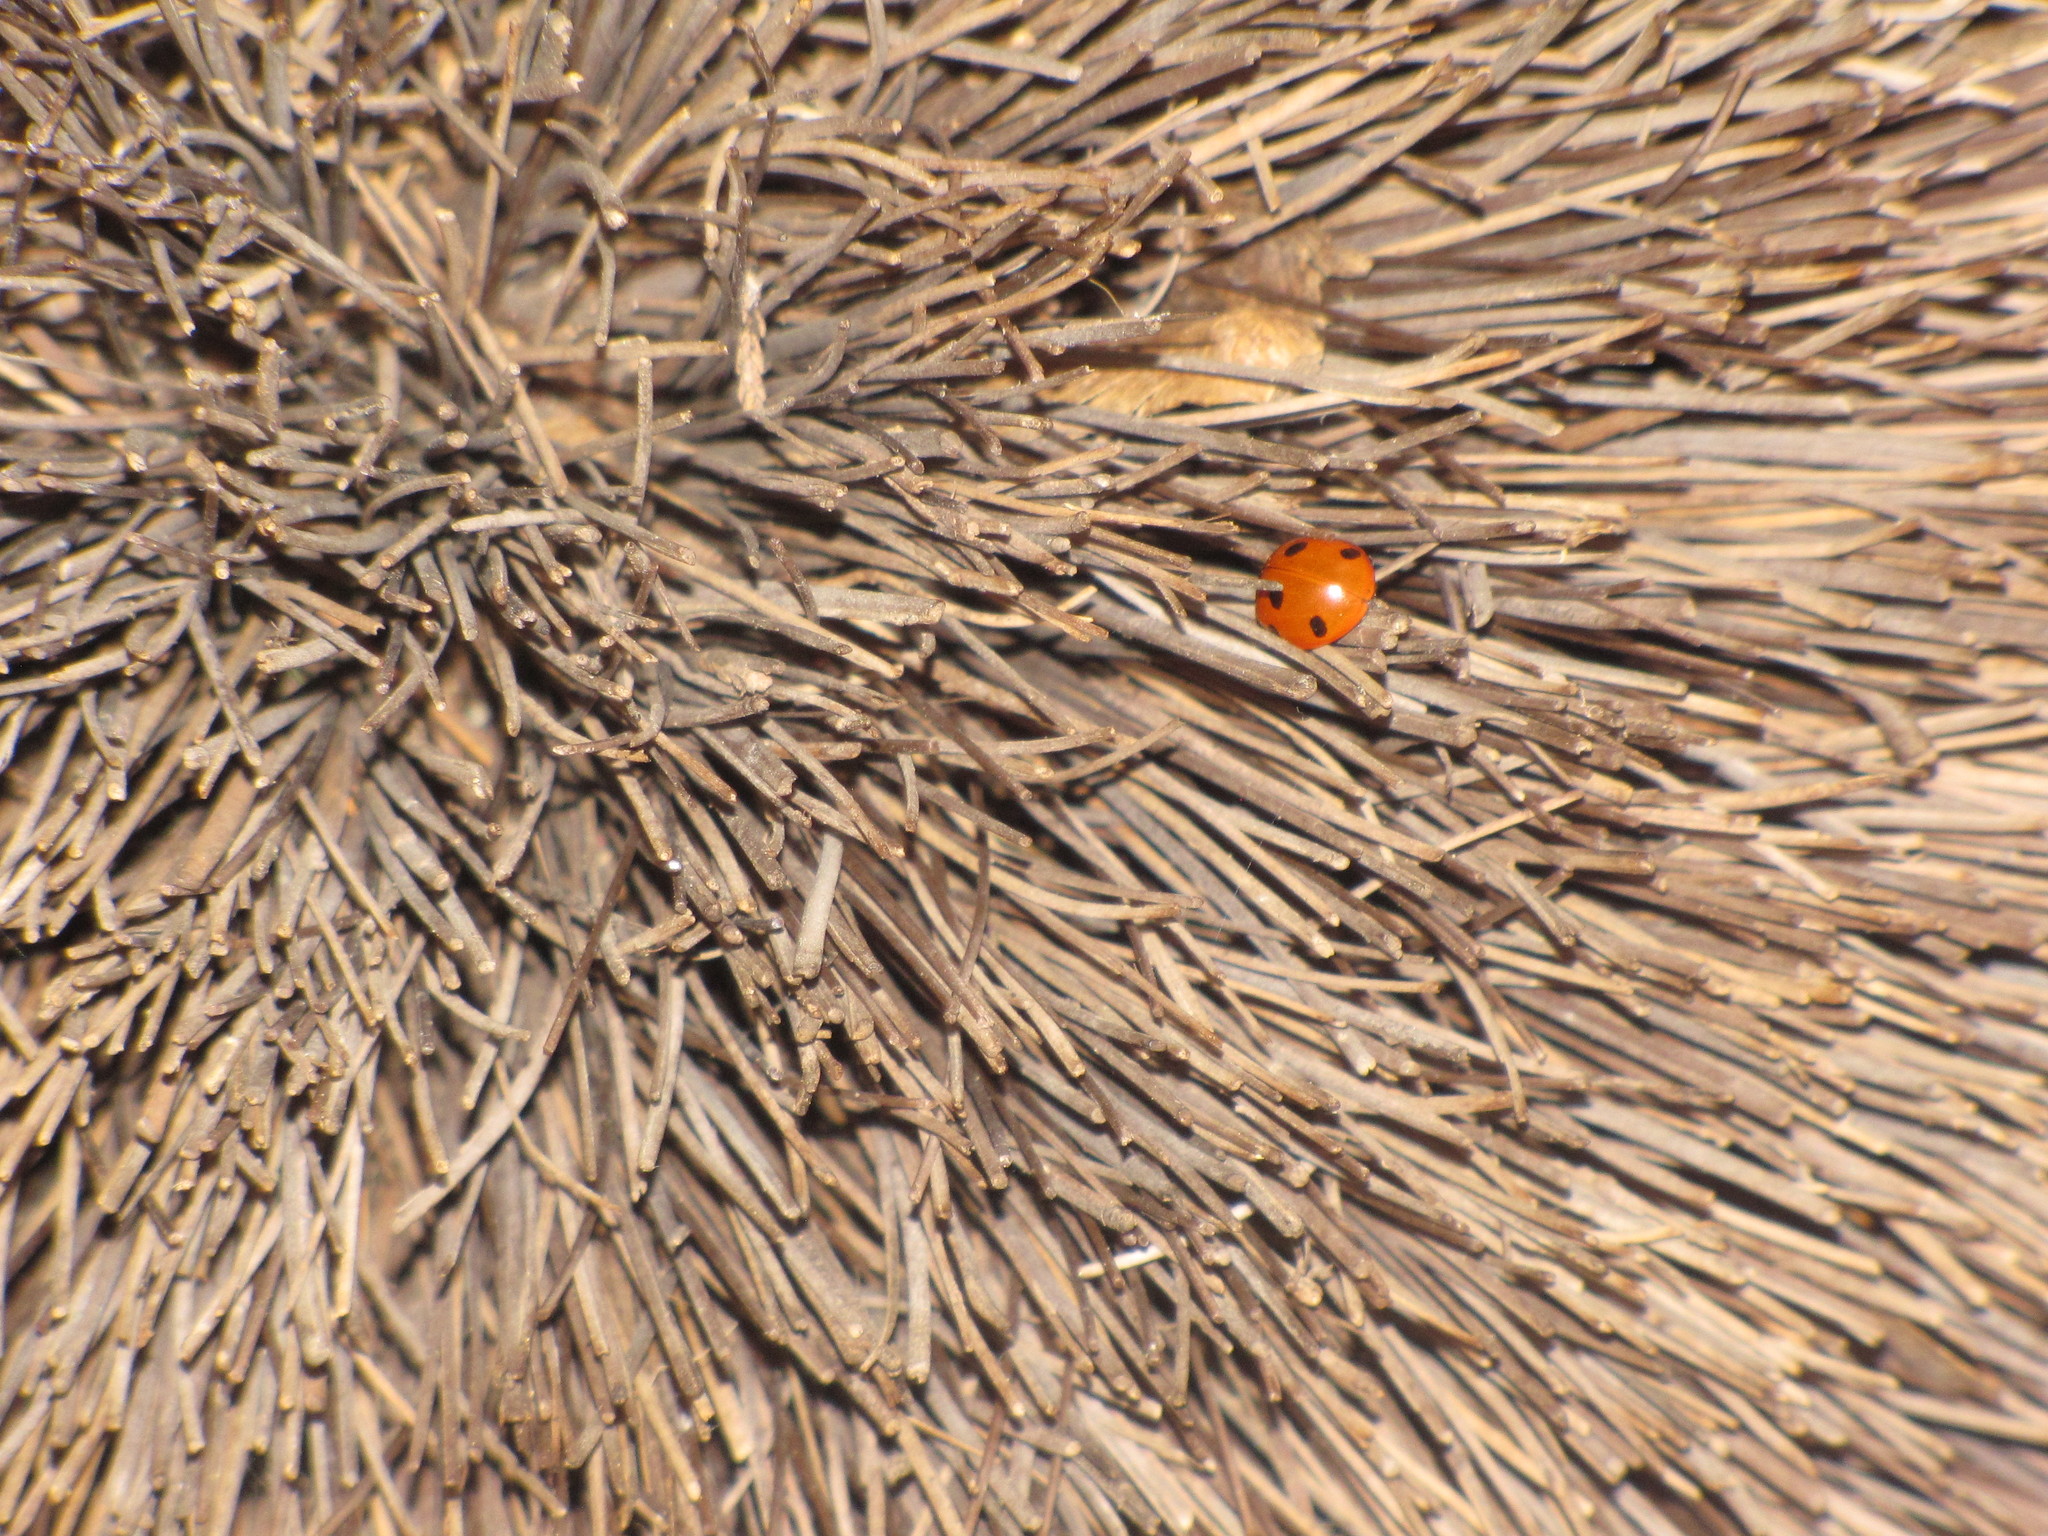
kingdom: Animalia
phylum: Arthropoda
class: Insecta
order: Coleoptera
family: Coccinellidae
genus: Coccinella
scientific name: Coccinella septempunctata
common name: Sevenspotted lady beetle
